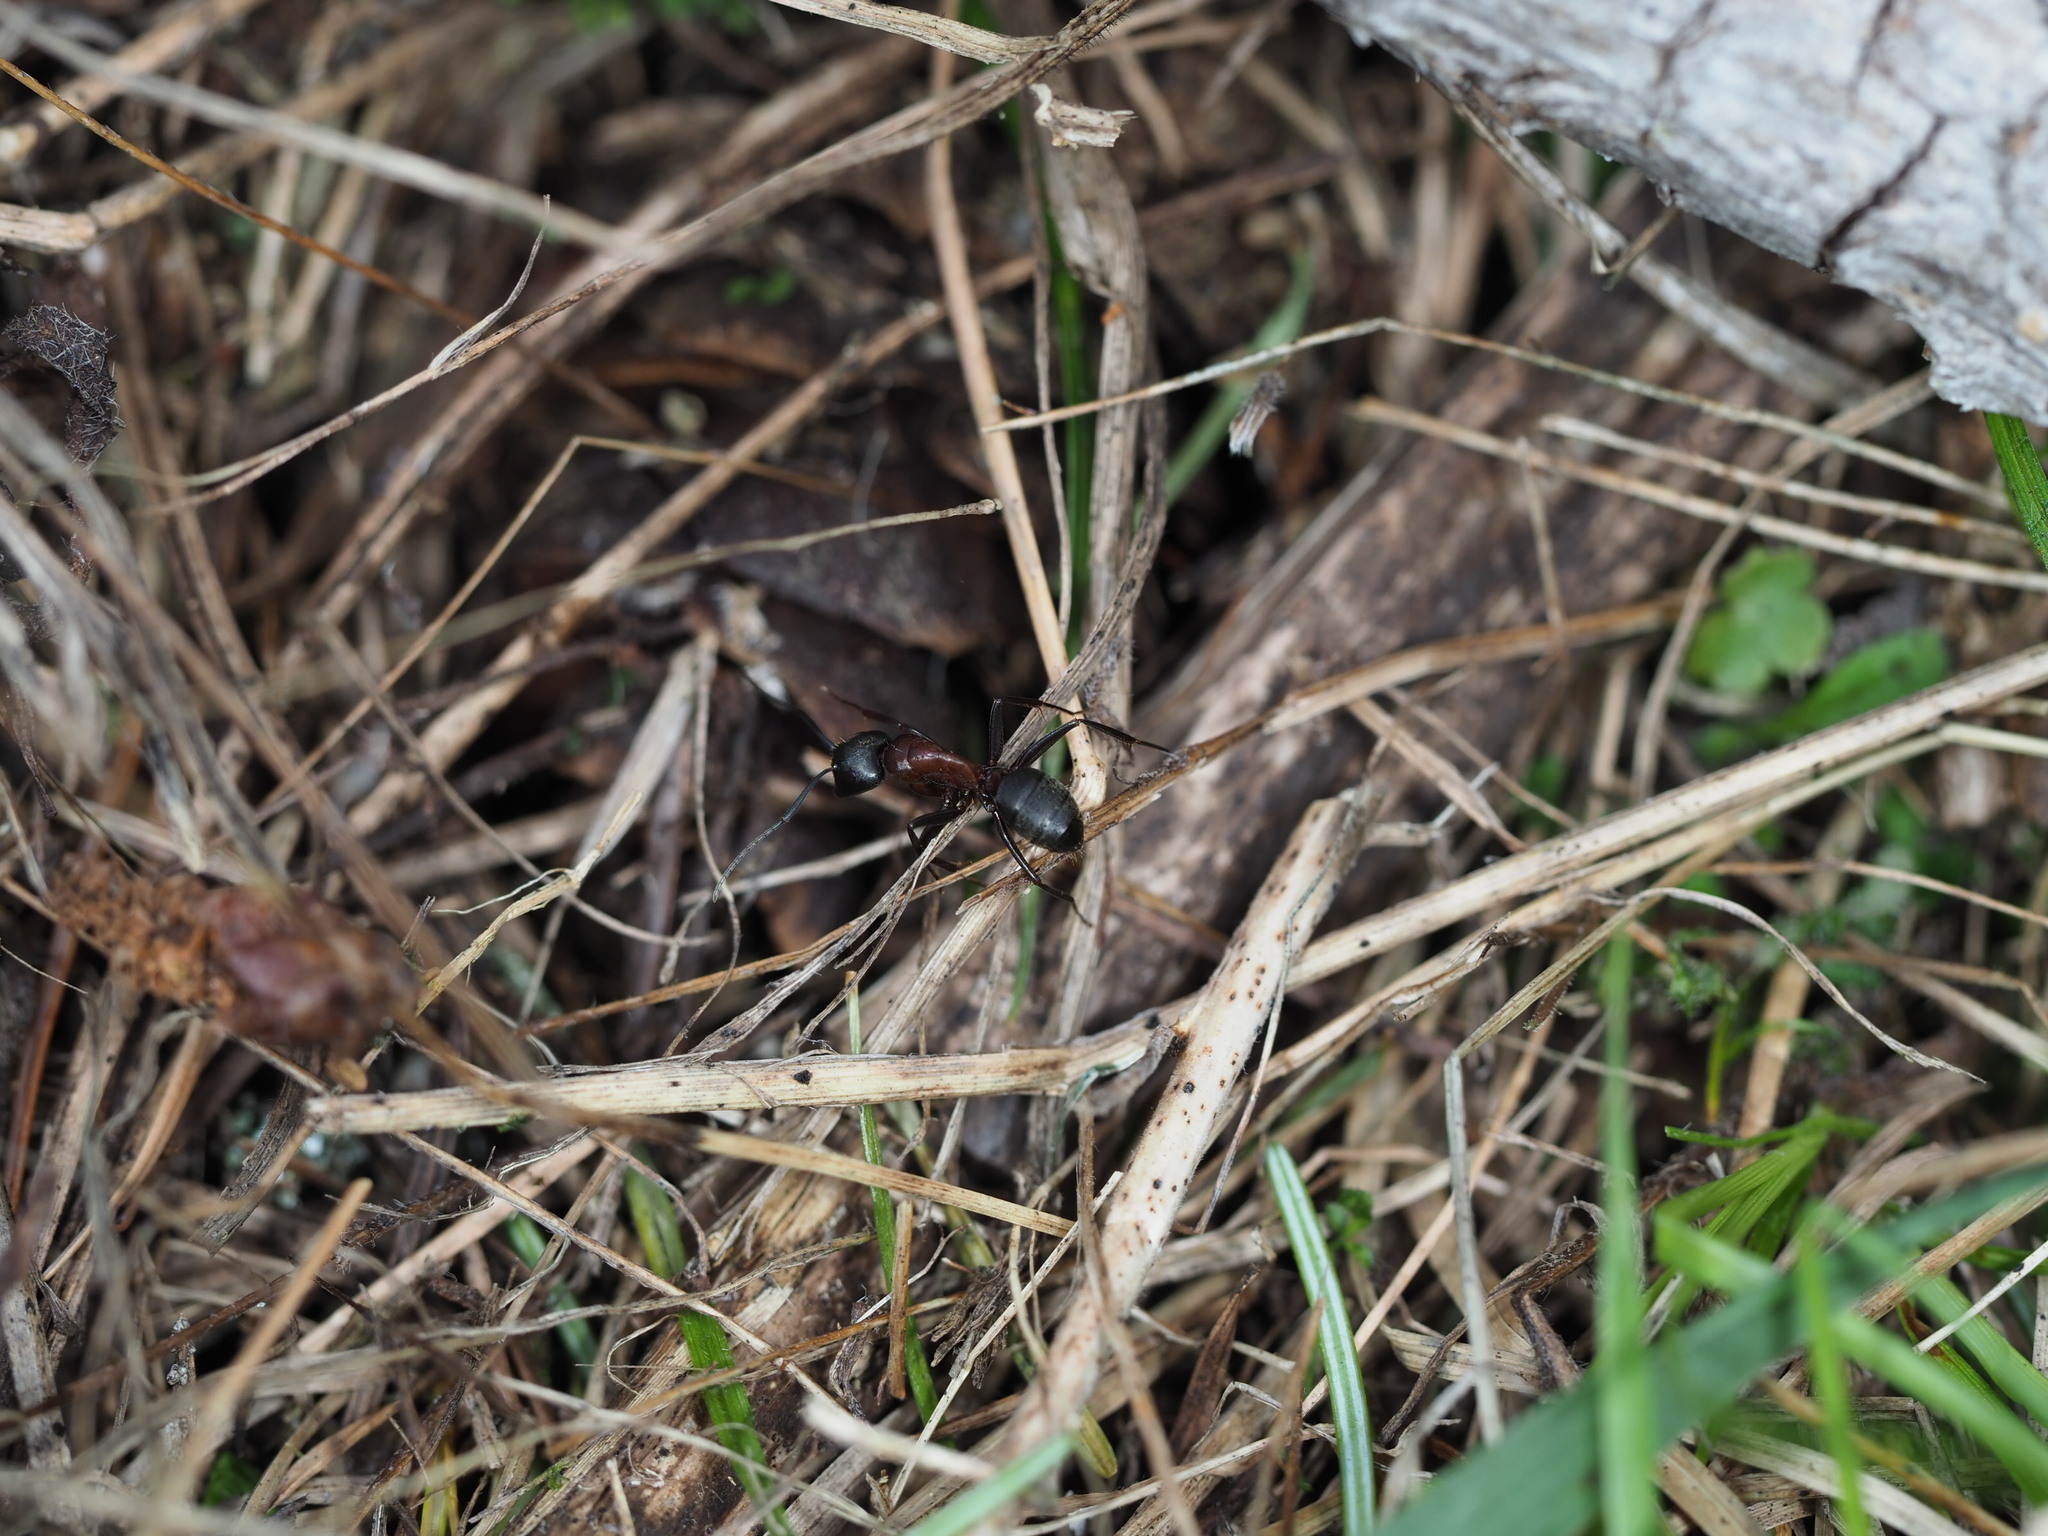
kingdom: Animalia
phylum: Arthropoda
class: Insecta
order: Hymenoptera
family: Formicidae
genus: Camponotus
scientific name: Camponotus vicinus
